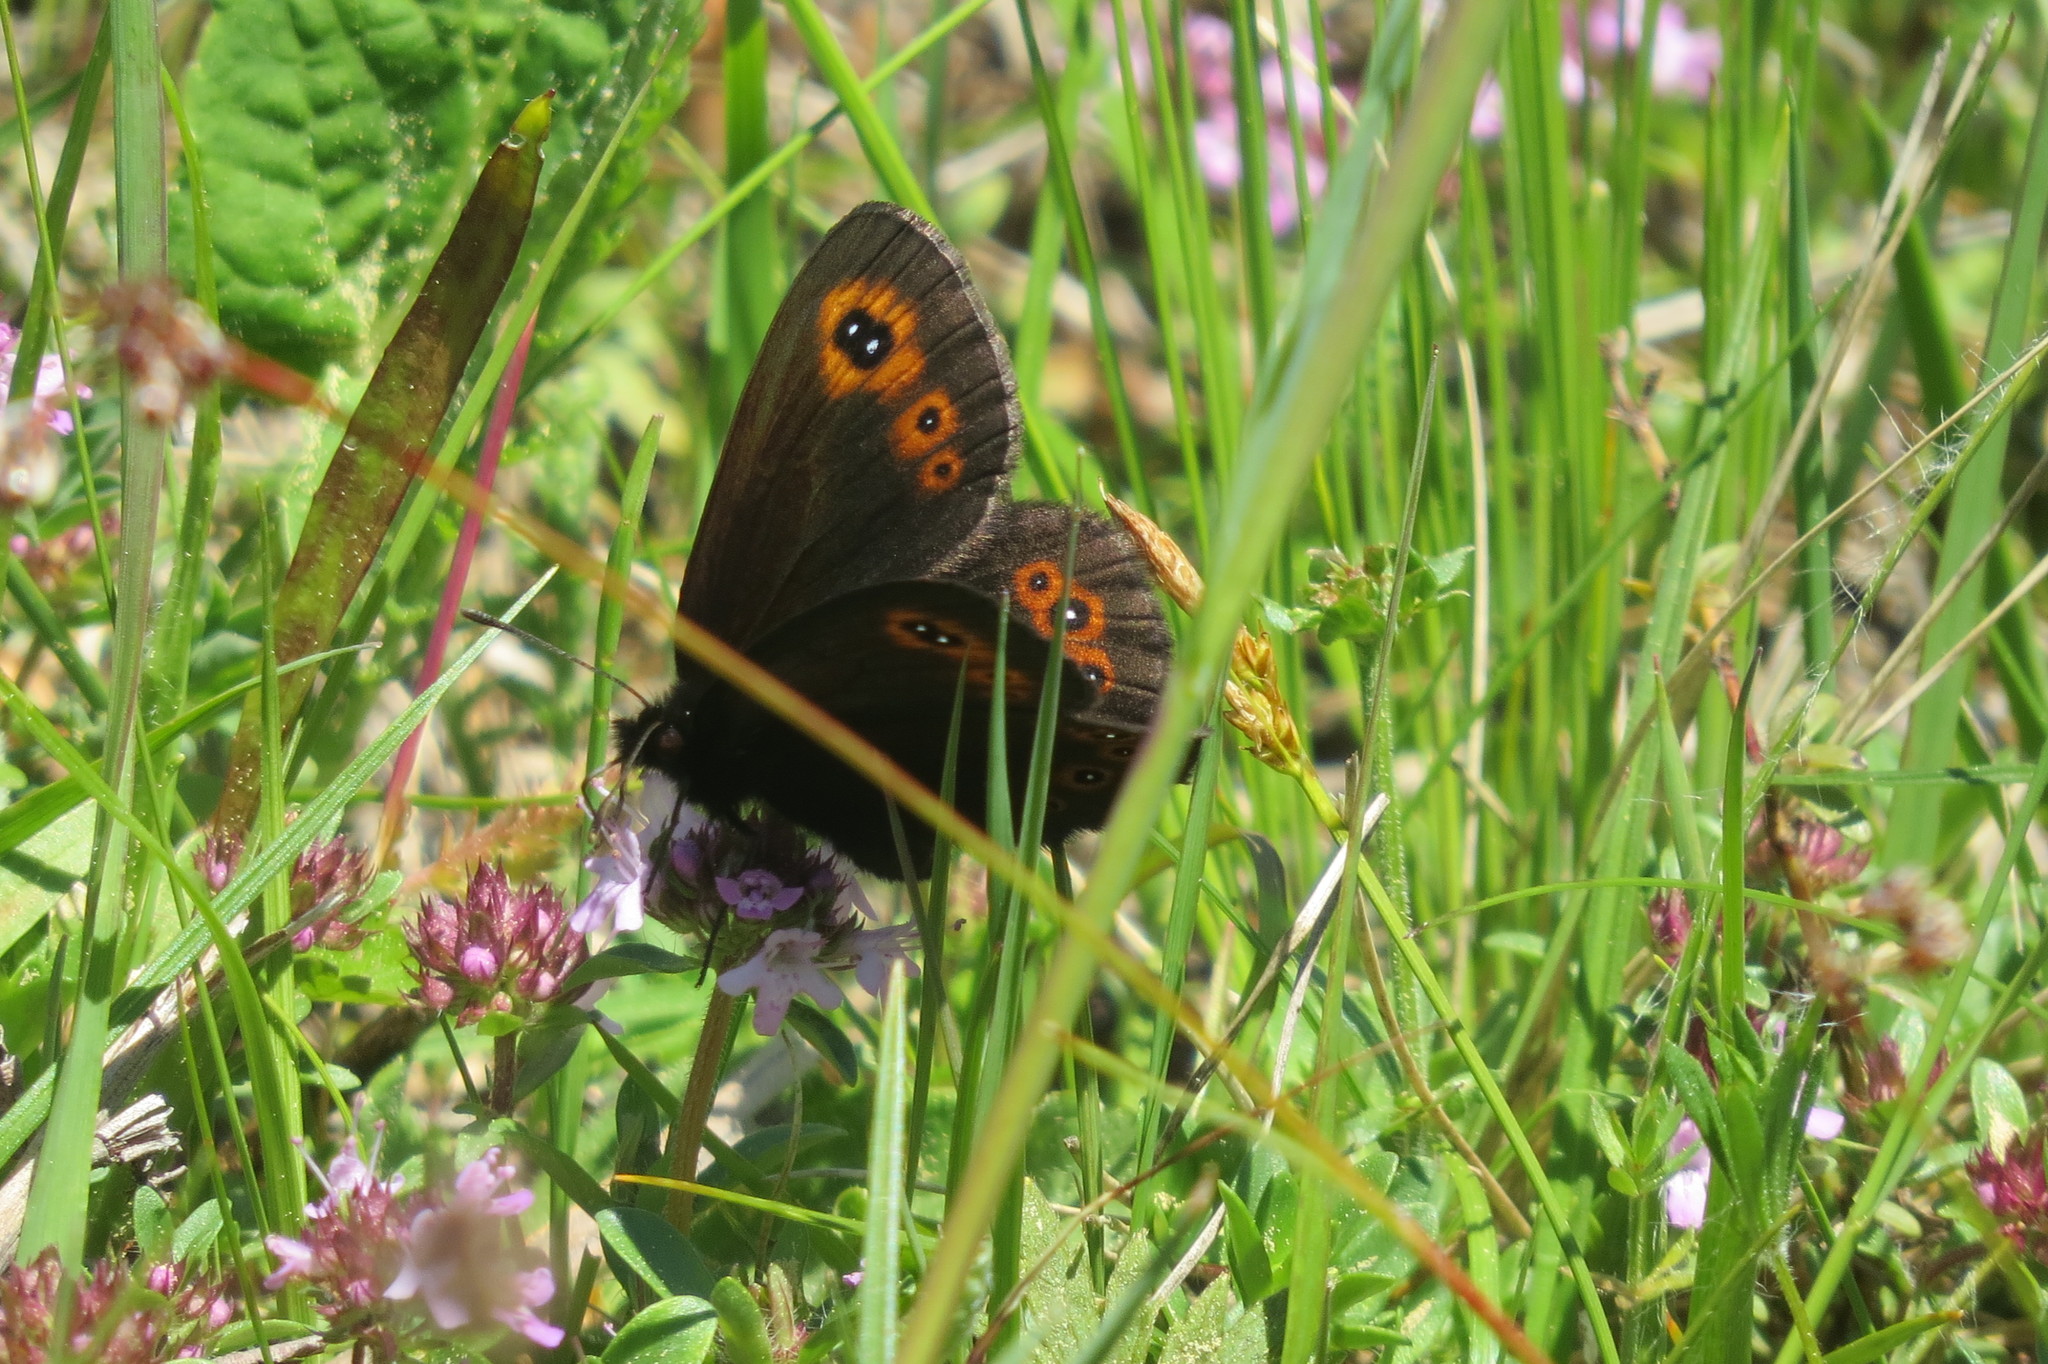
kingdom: Animalia
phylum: Arthropoda
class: Insecta
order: Lepidoptera
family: Nymphalidae
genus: Erebia
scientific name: Erebia medusa
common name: Woodland ringlet
